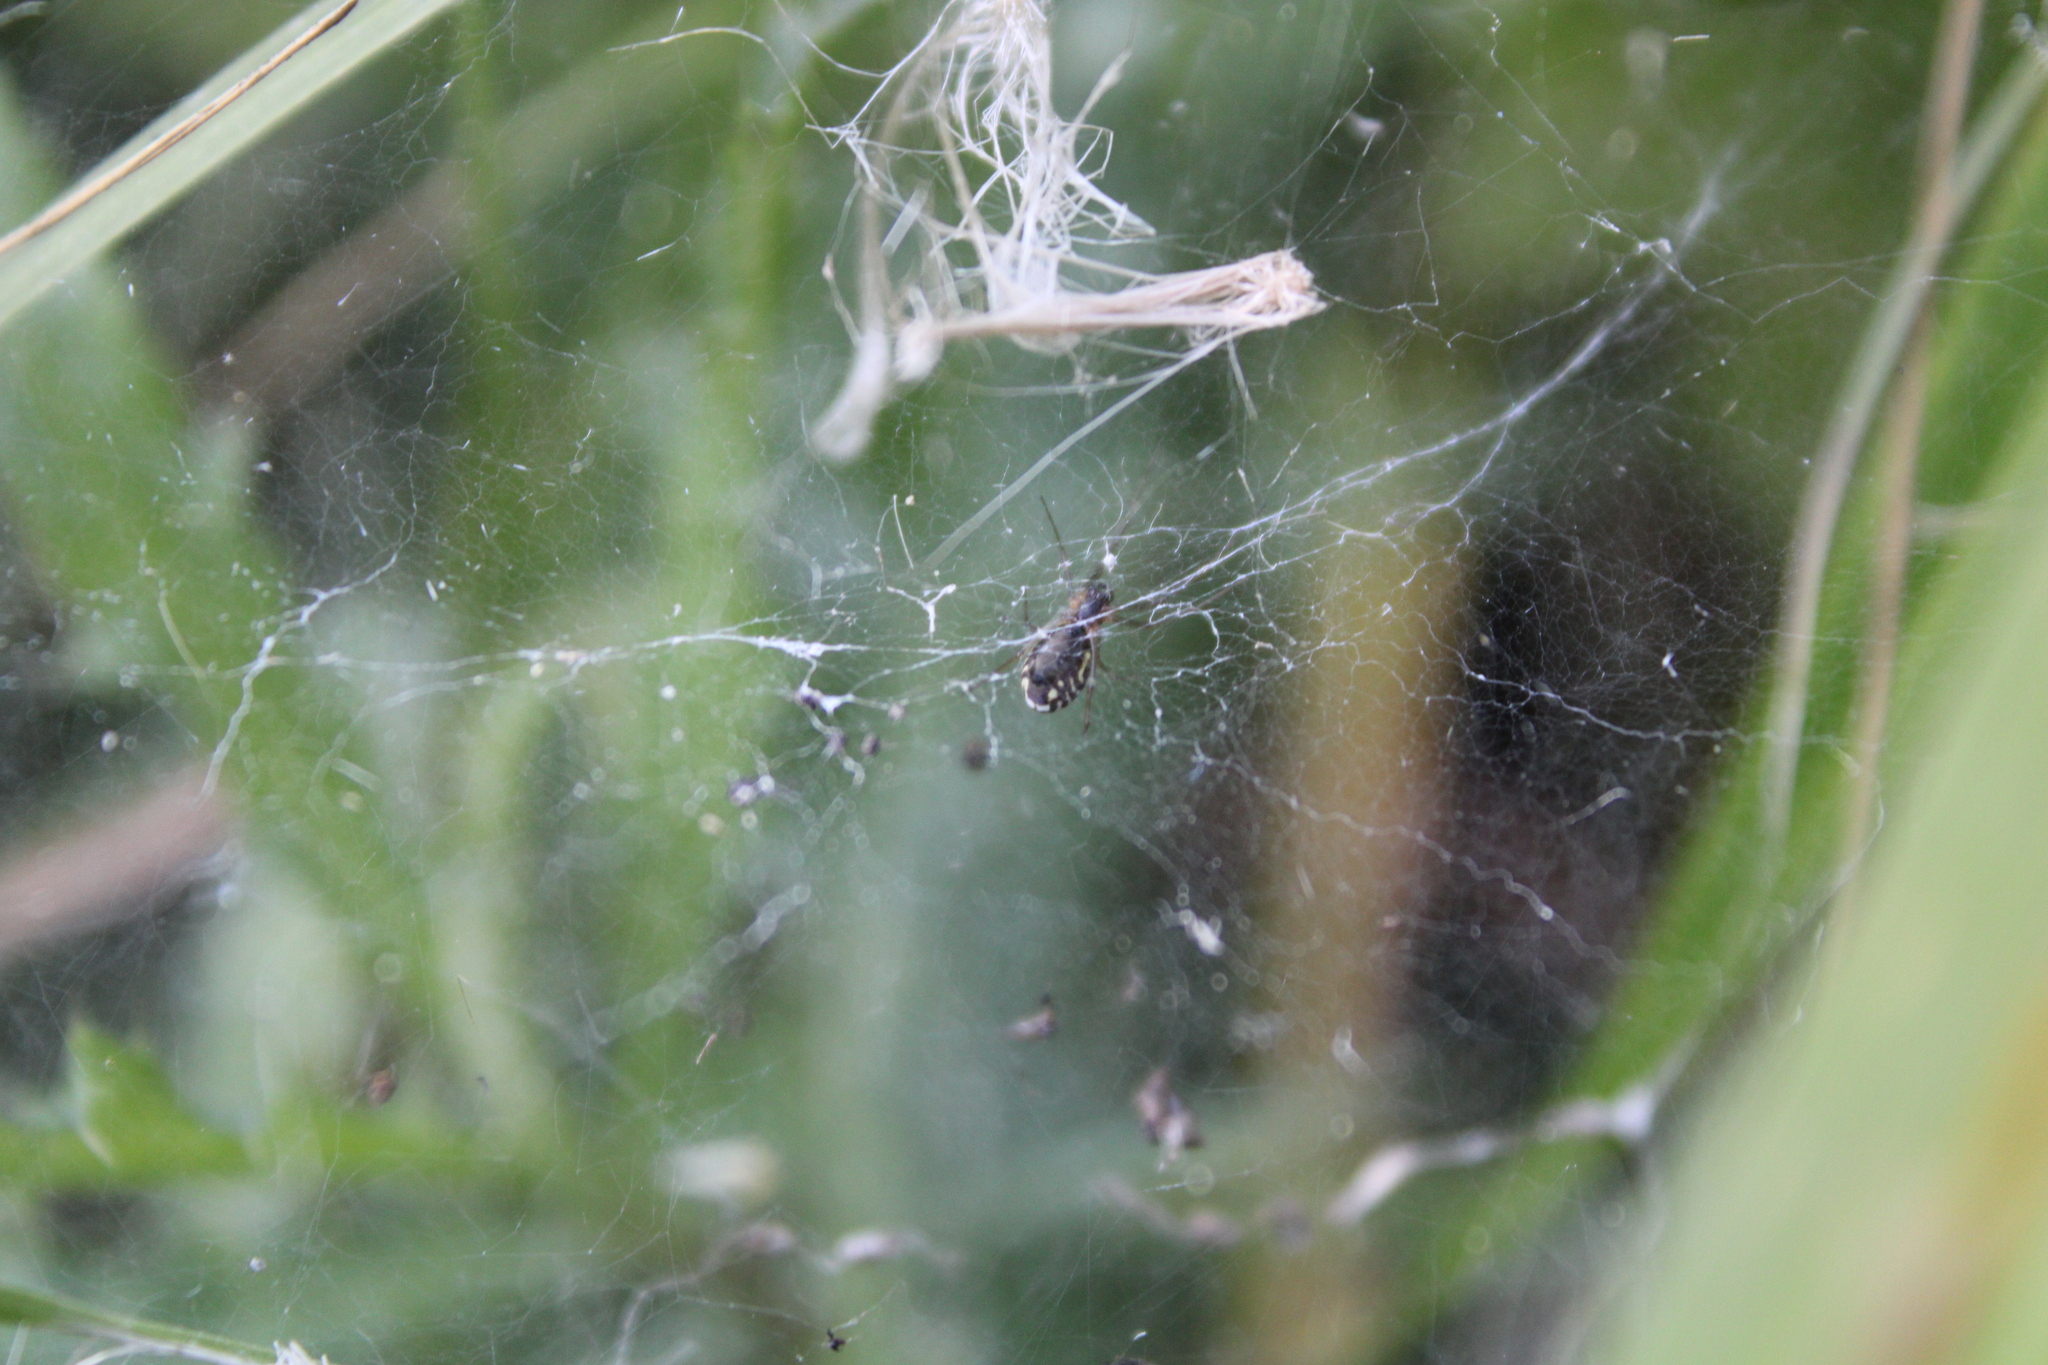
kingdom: Animalia
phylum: Arthropoda
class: Arachnida
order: Araneae
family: Linyphiidae
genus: Frontinella
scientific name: Frontinella pyramitela
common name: Bowl-and-doily spider
